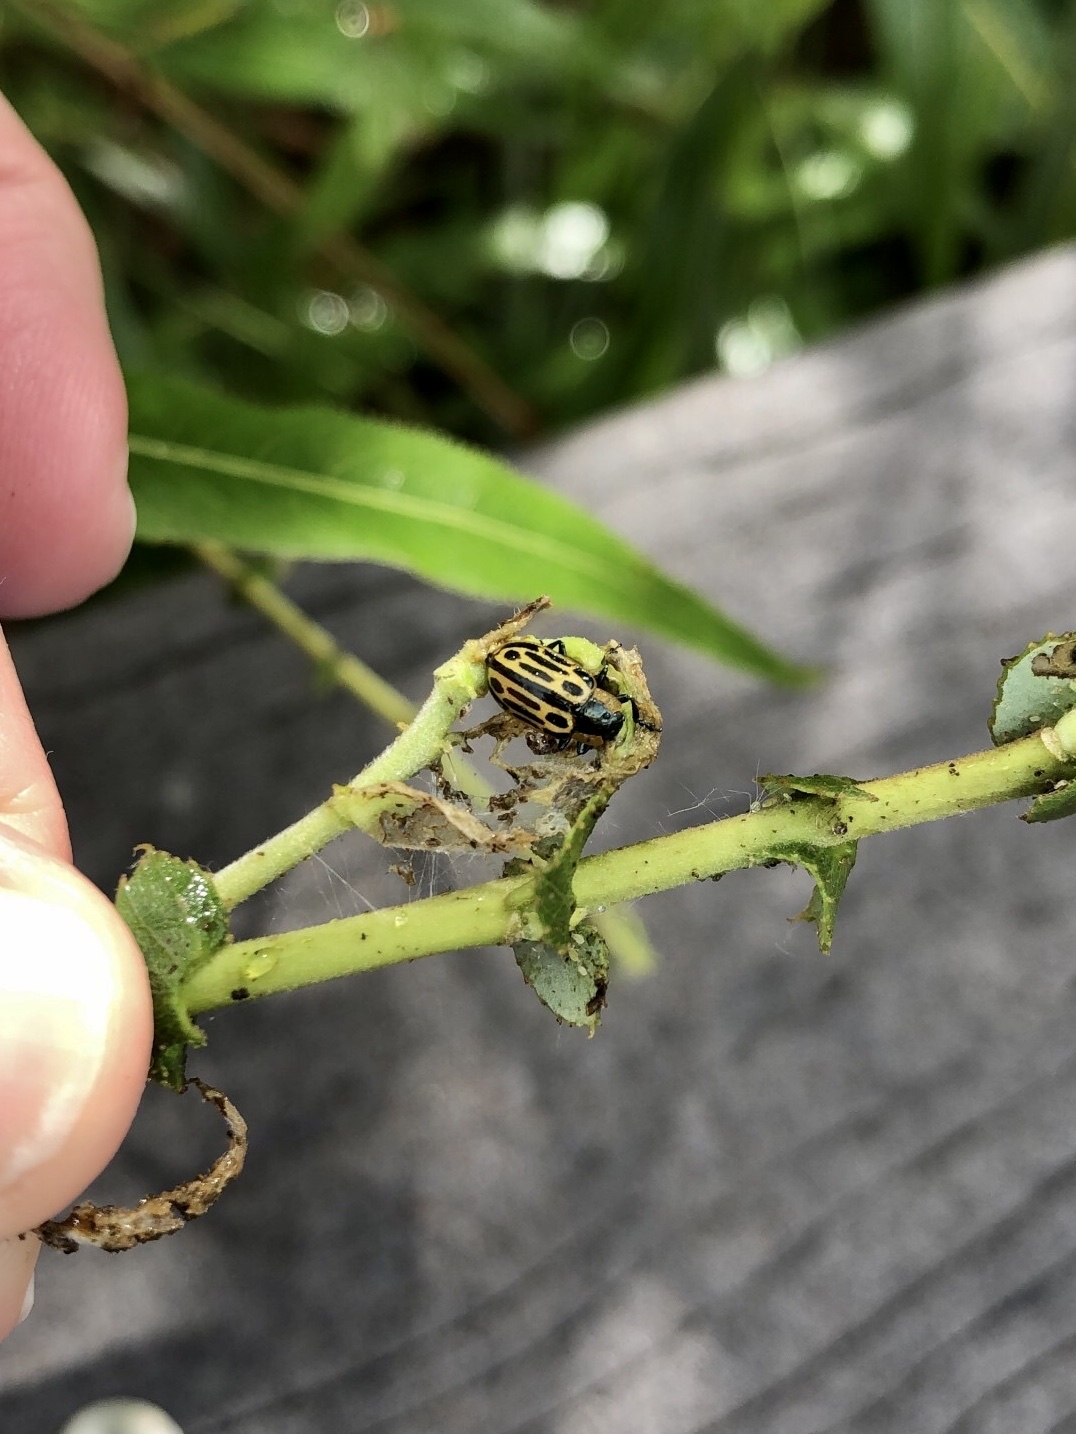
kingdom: Animalia
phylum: Arthropoda
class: Insecta
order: Coleoptera
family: Chrysomelidae
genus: Aethiopocassis
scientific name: Aethiopocassis scripta
